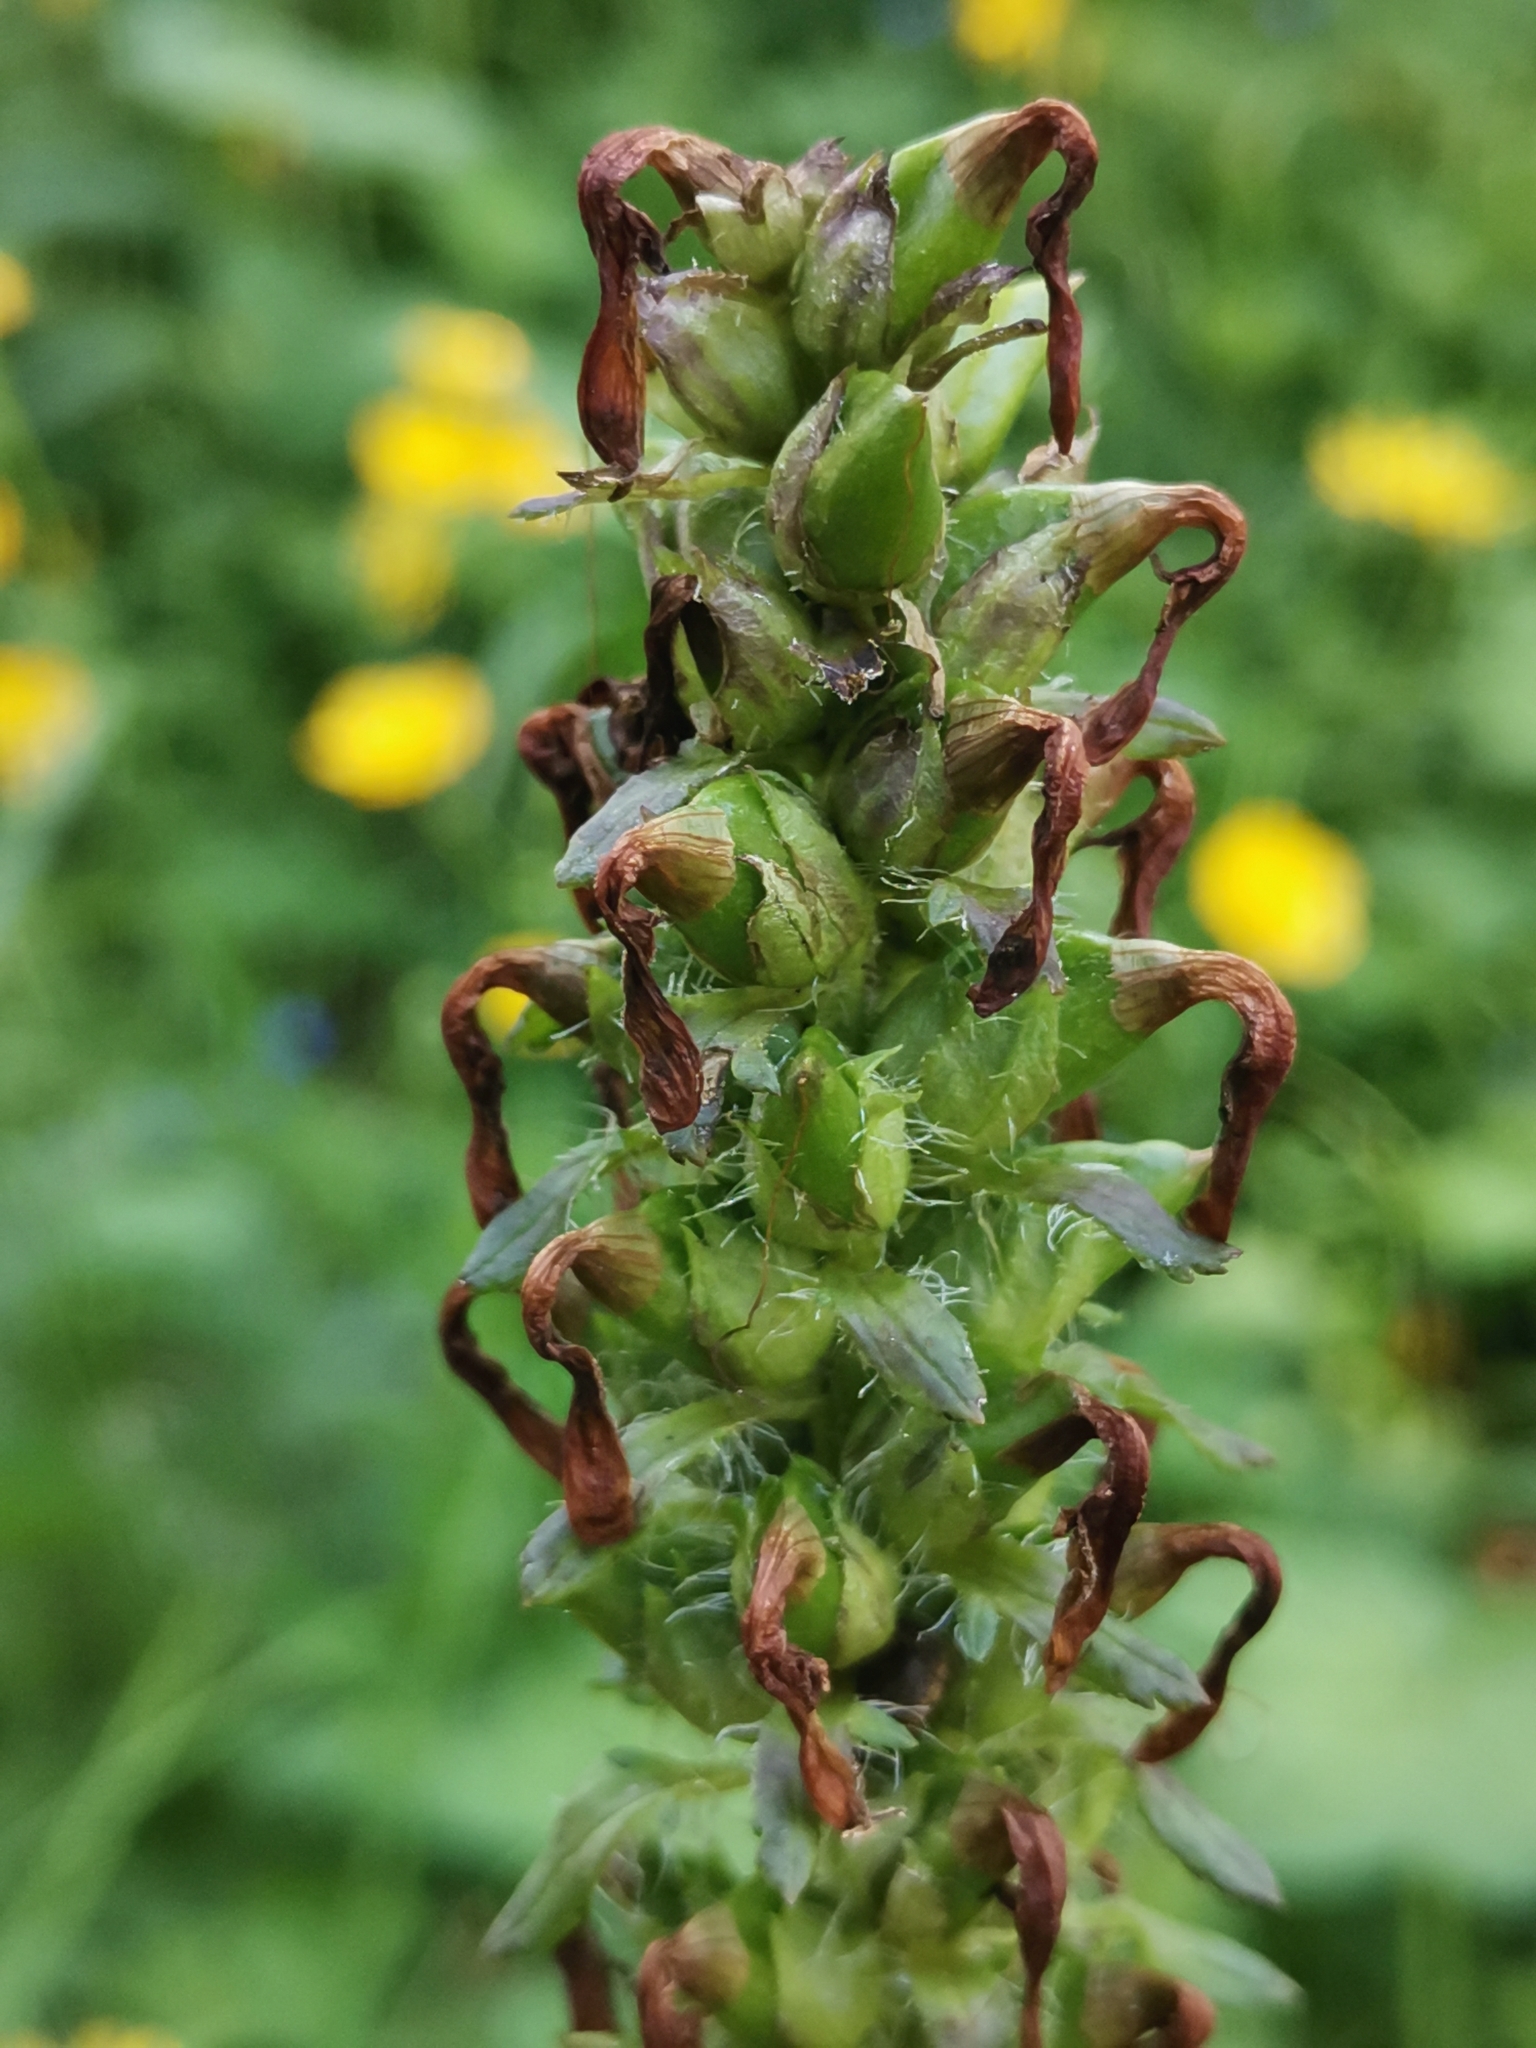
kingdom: Plantae
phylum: Tracheophyta
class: Magnoliopsida
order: Lamiales
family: Orobanchaceae
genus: Pedicularis
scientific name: Pedicularis recutita
